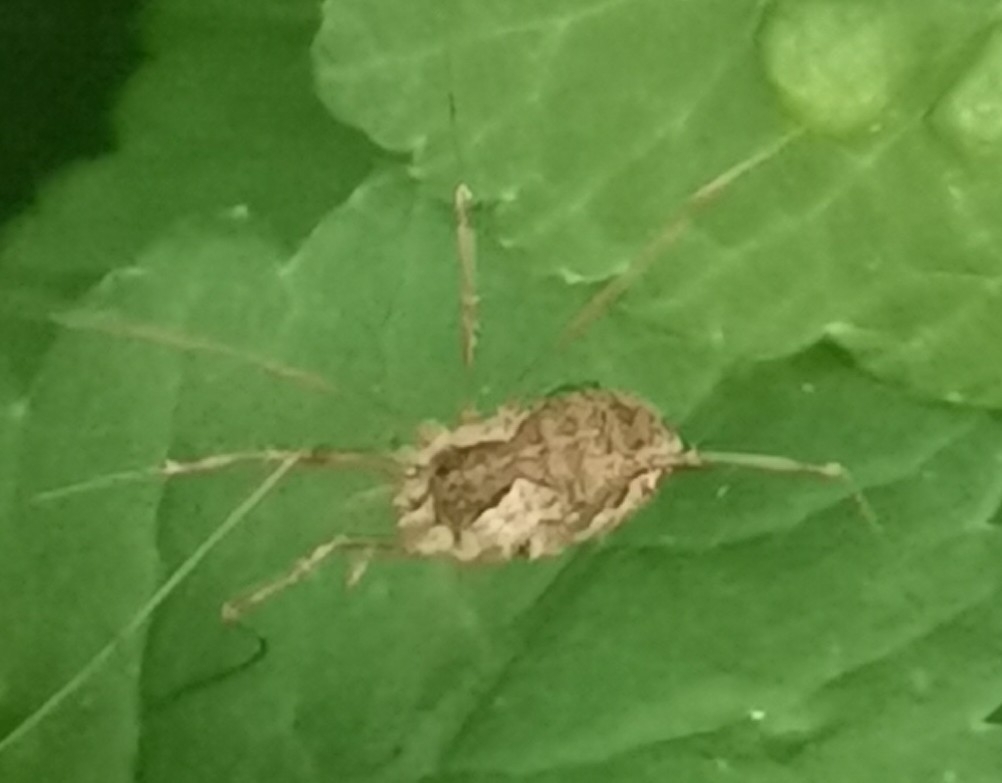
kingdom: Animalia
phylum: Arthropoda
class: Arachnida
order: Opiliones
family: Phalangiidae
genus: Mitopus
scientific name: Mitopus morio
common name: Saddleback harvestman
